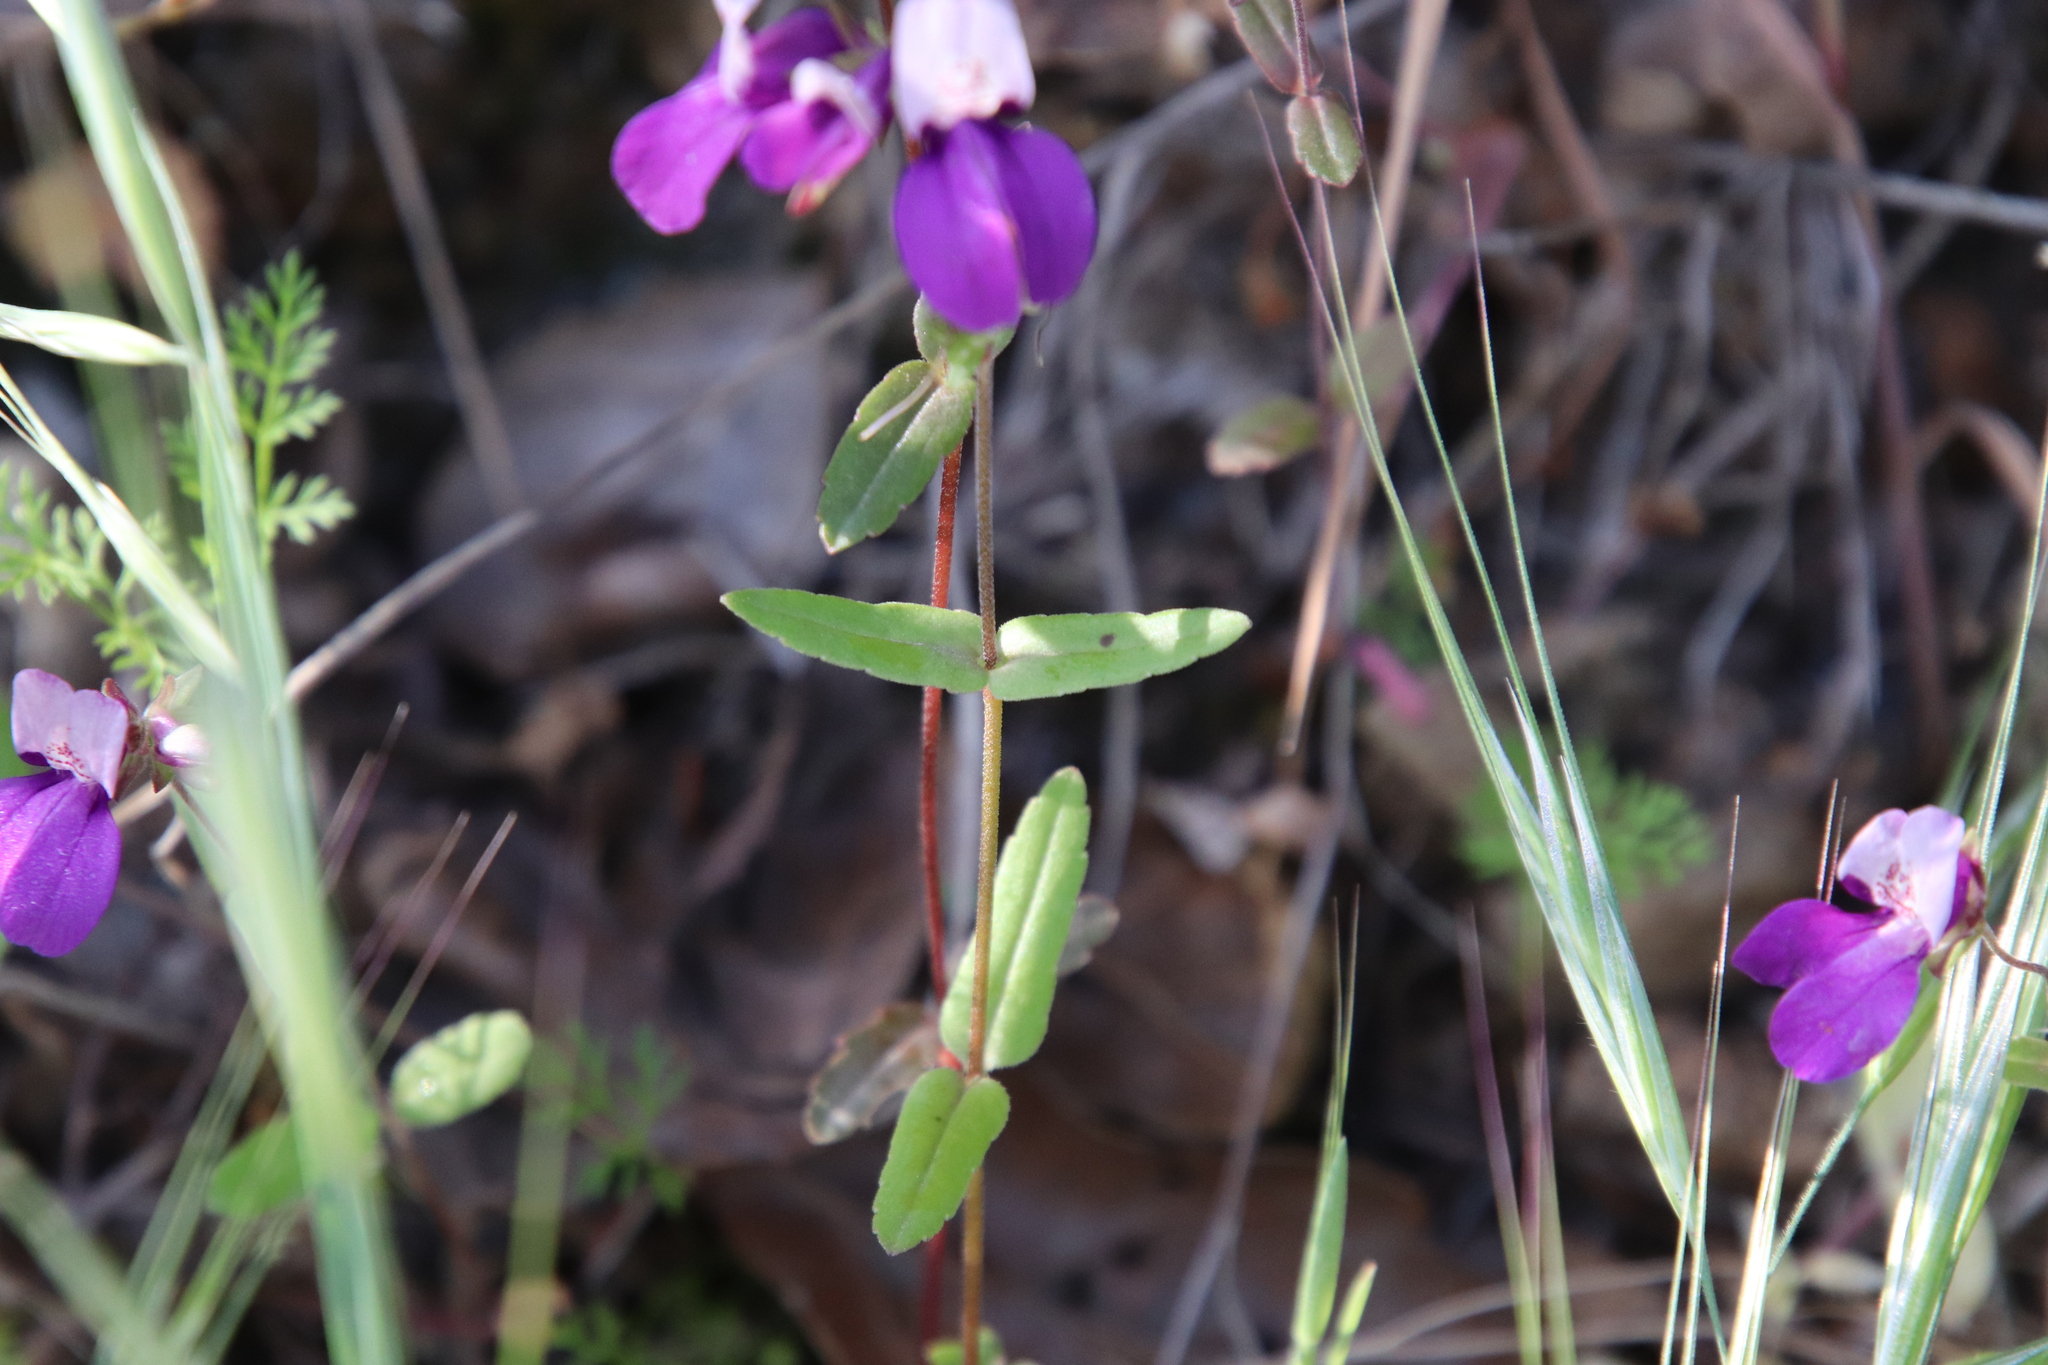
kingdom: Plantae
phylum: Tracheophyta
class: Magnoliopsida
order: Lamiales
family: Plantaginaceae
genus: Collinsia
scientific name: Collinsia heterophylla
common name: Chinese-houses
